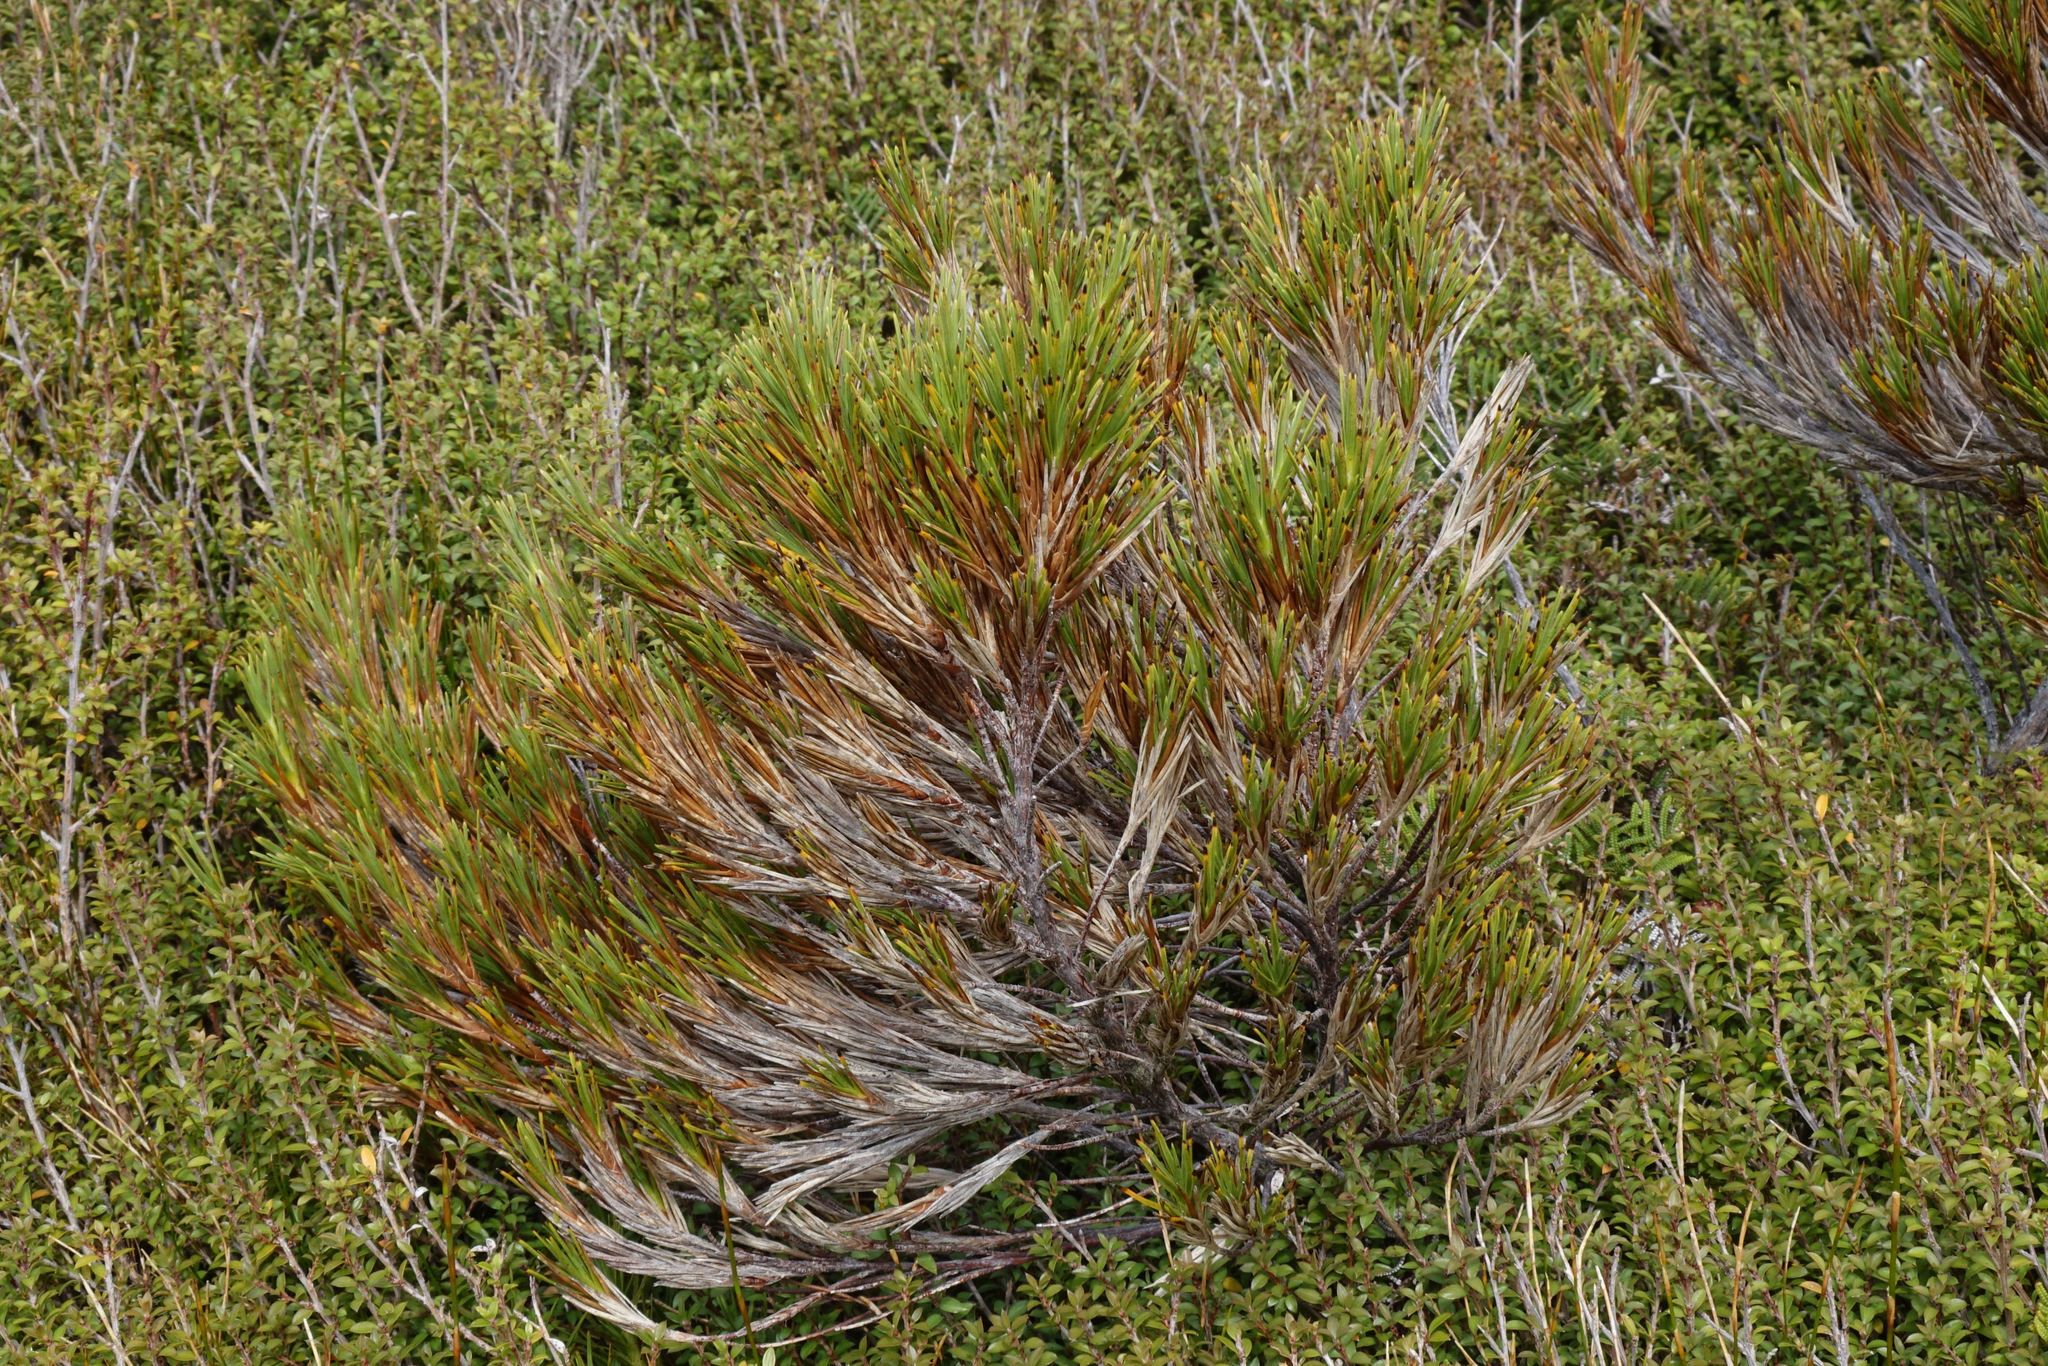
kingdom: Plantae
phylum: Tracheophyta
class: Magnoliopsida
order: Ericales
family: Ericaceae
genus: Dracophyllum
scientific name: Dracophyllum pearsonii
